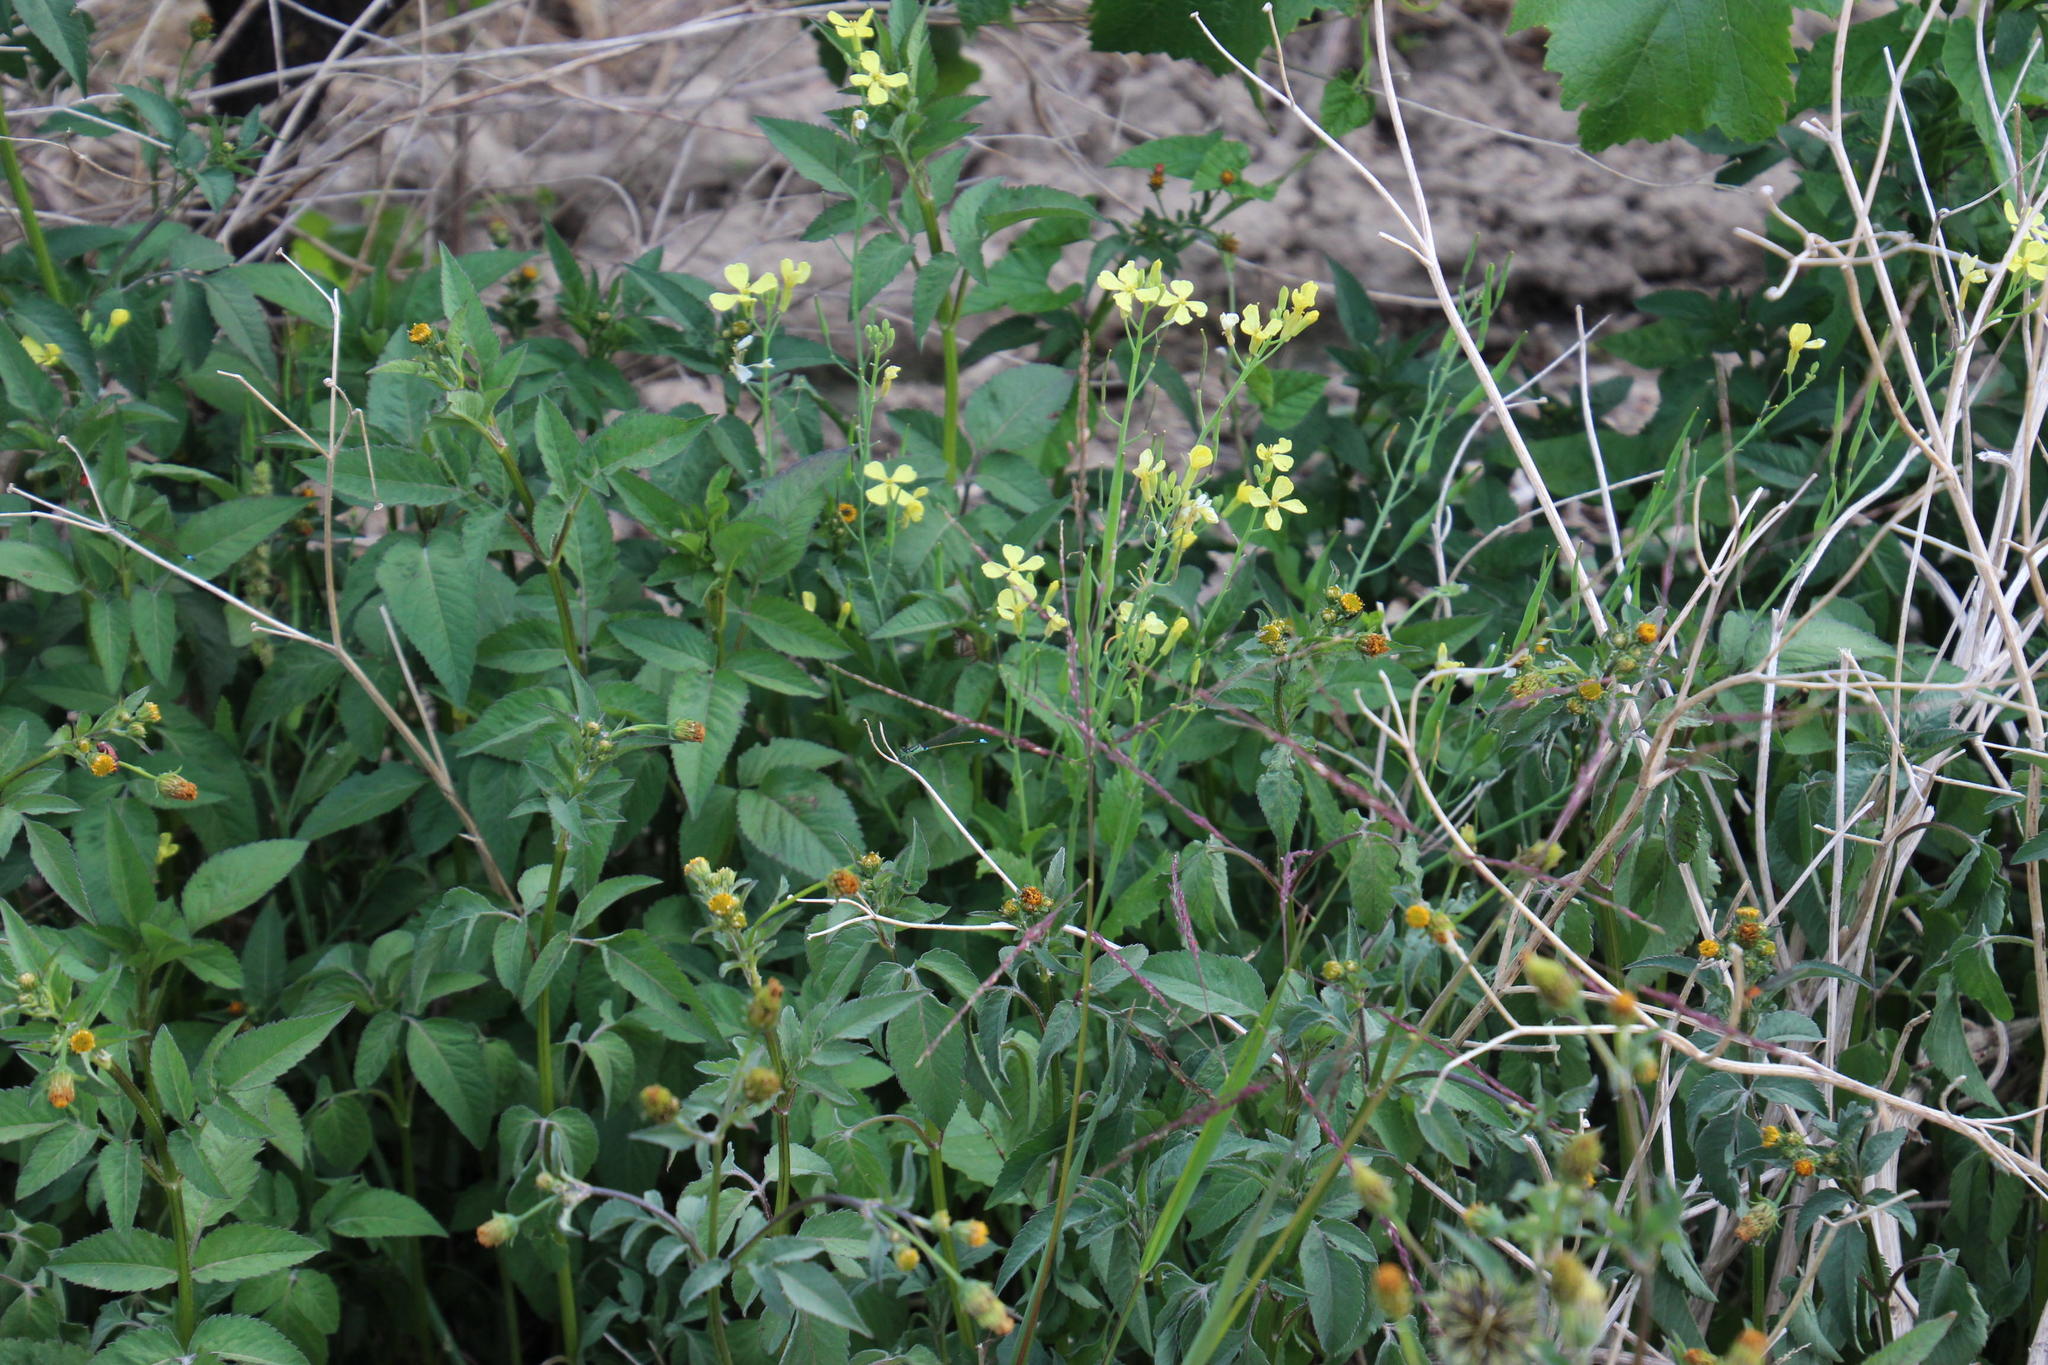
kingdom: Plantae
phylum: Tracheophyta
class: Magnoliopsida
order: Brassicales
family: Brassicaceae
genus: Raphanus
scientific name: Raphanus raphanistrum
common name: Wild radish
